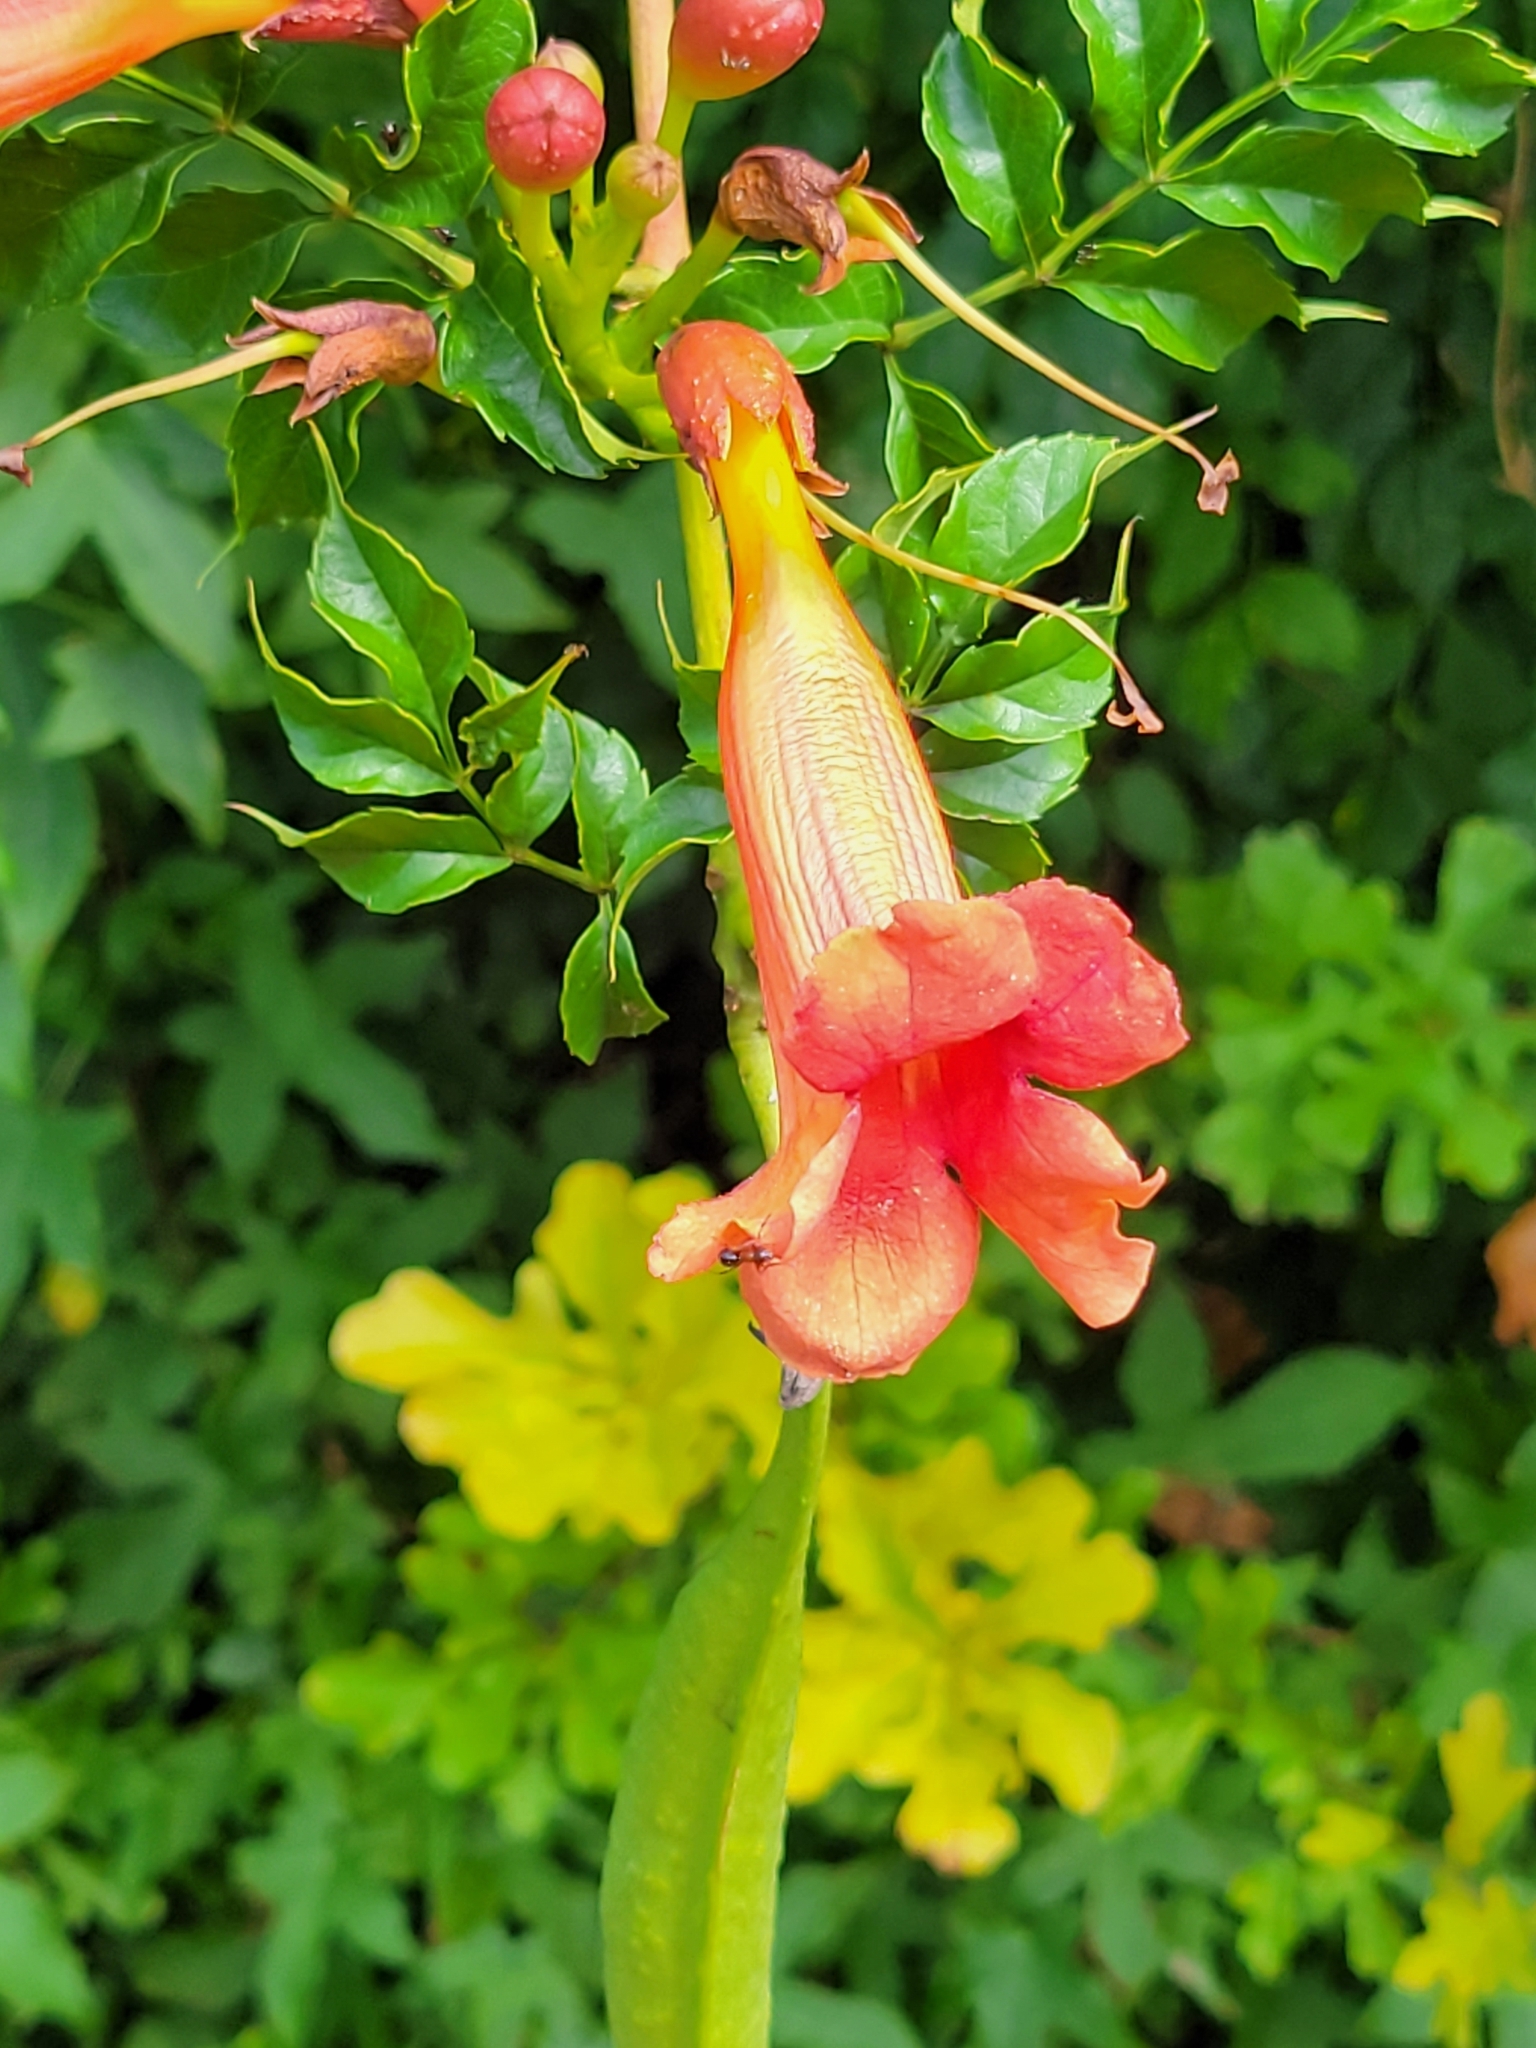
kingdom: Plantae
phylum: Tracheophyta
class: Magnoliopsida
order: Lamiales
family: Bignoniaceae
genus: Campsis
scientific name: Campsis radicans
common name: Trumpet-creeper
